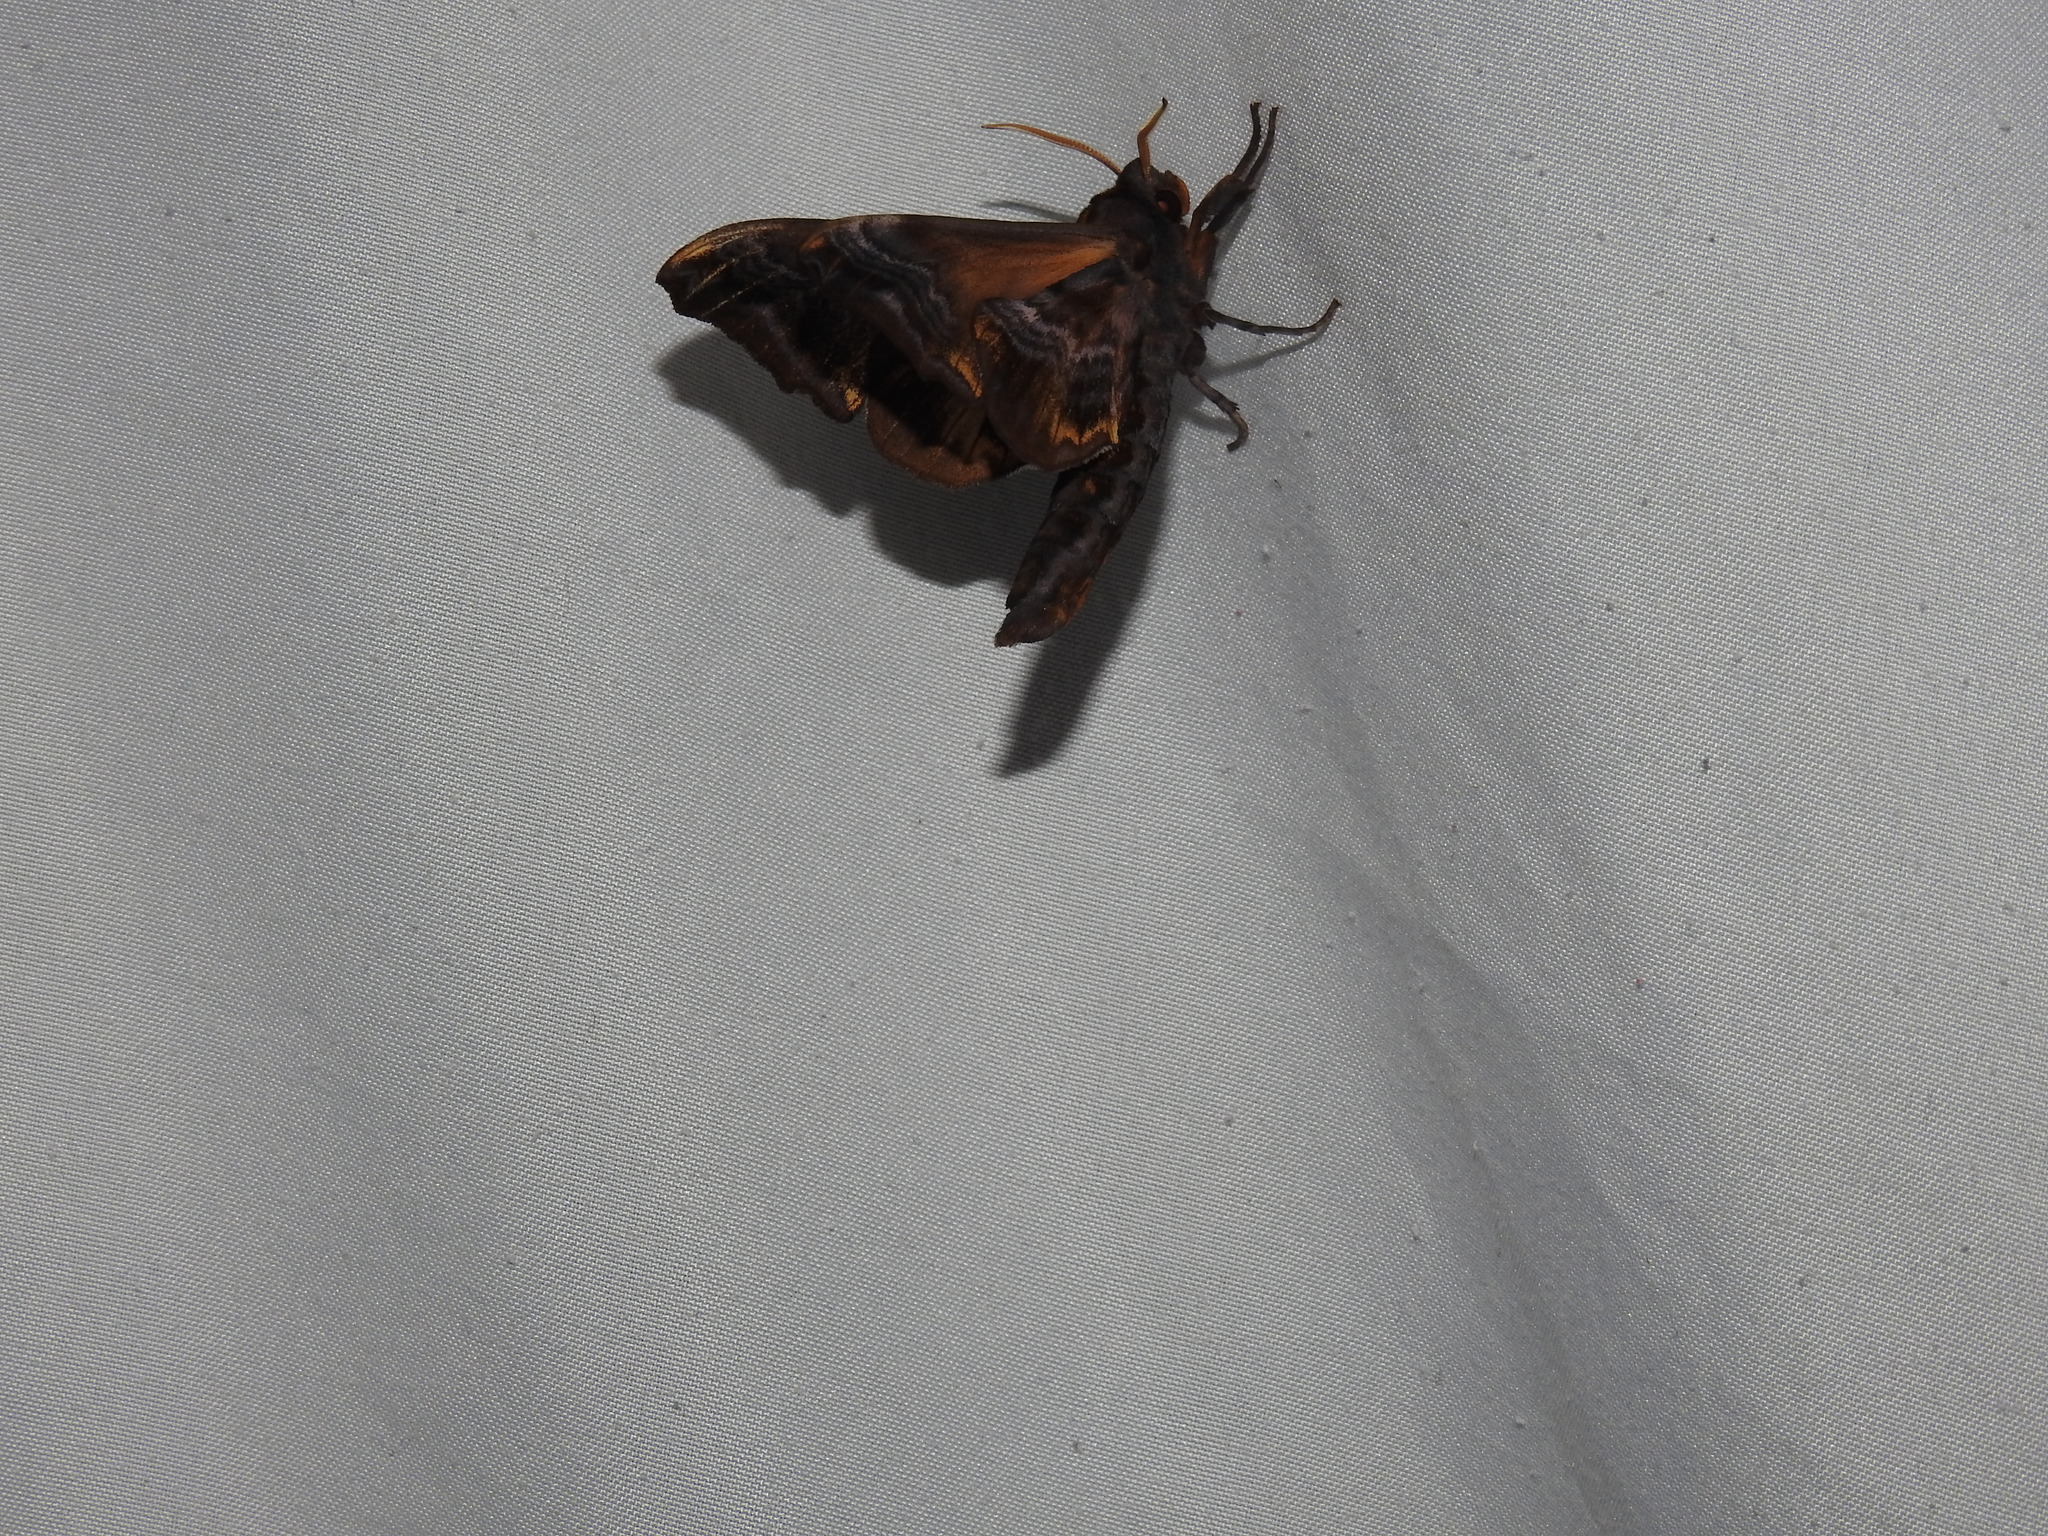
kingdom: Animalia
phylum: Arthropoda
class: Insecta
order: Lepidoptera
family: Sphingidae
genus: Paonias
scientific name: Paonias myops
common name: Small-eyed sphinx
